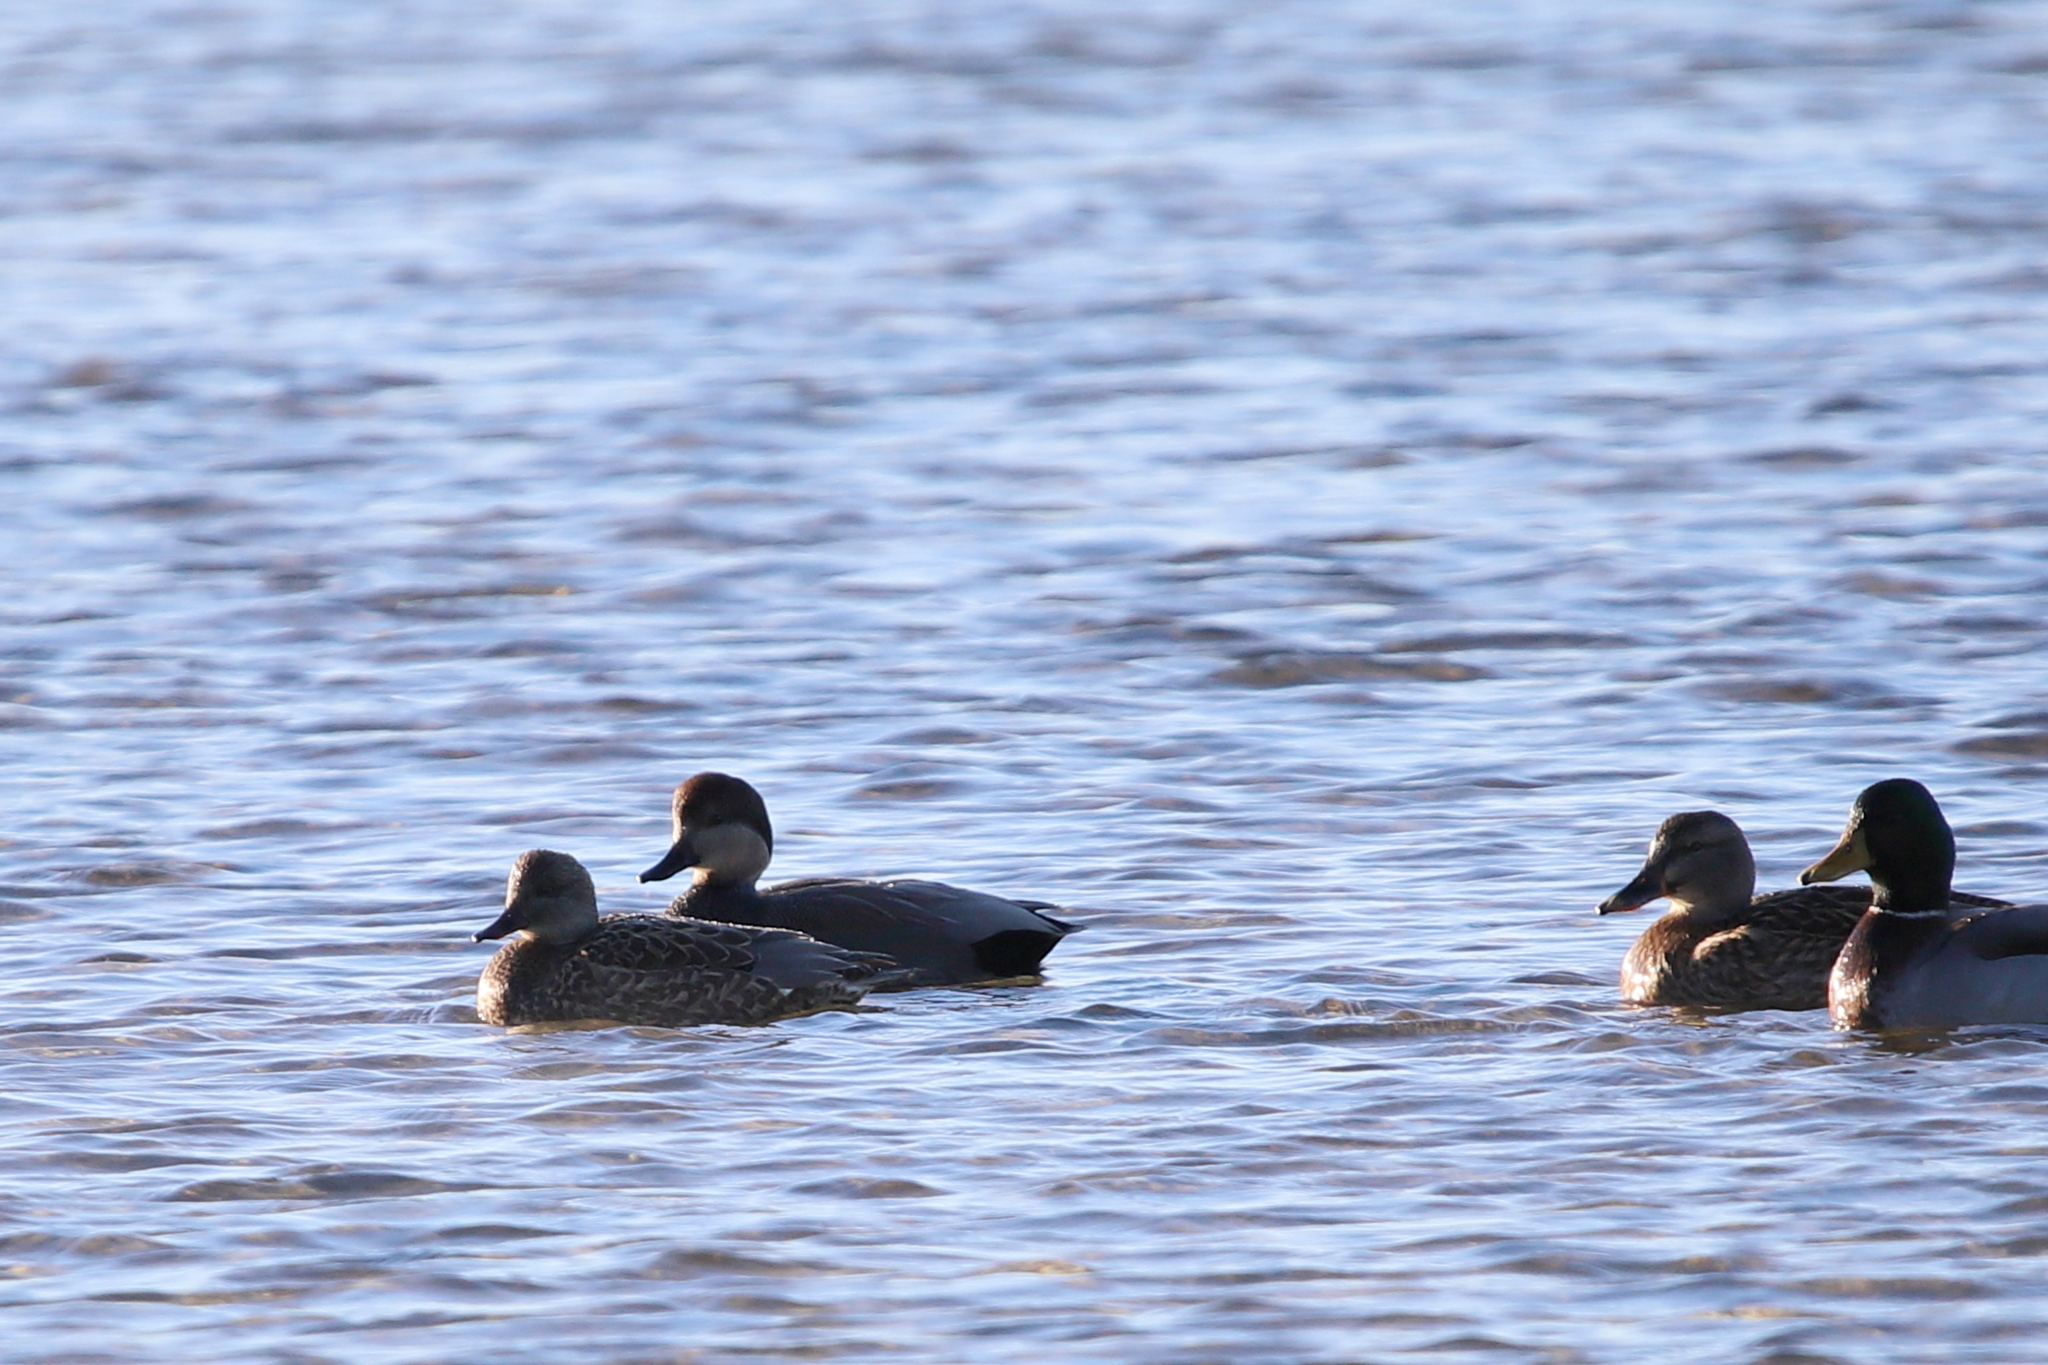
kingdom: Animalia
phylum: Chordata
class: Aves
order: Anseriformes
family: Anatidae
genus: Mareca
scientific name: Mareca strepera
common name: Gadwall
